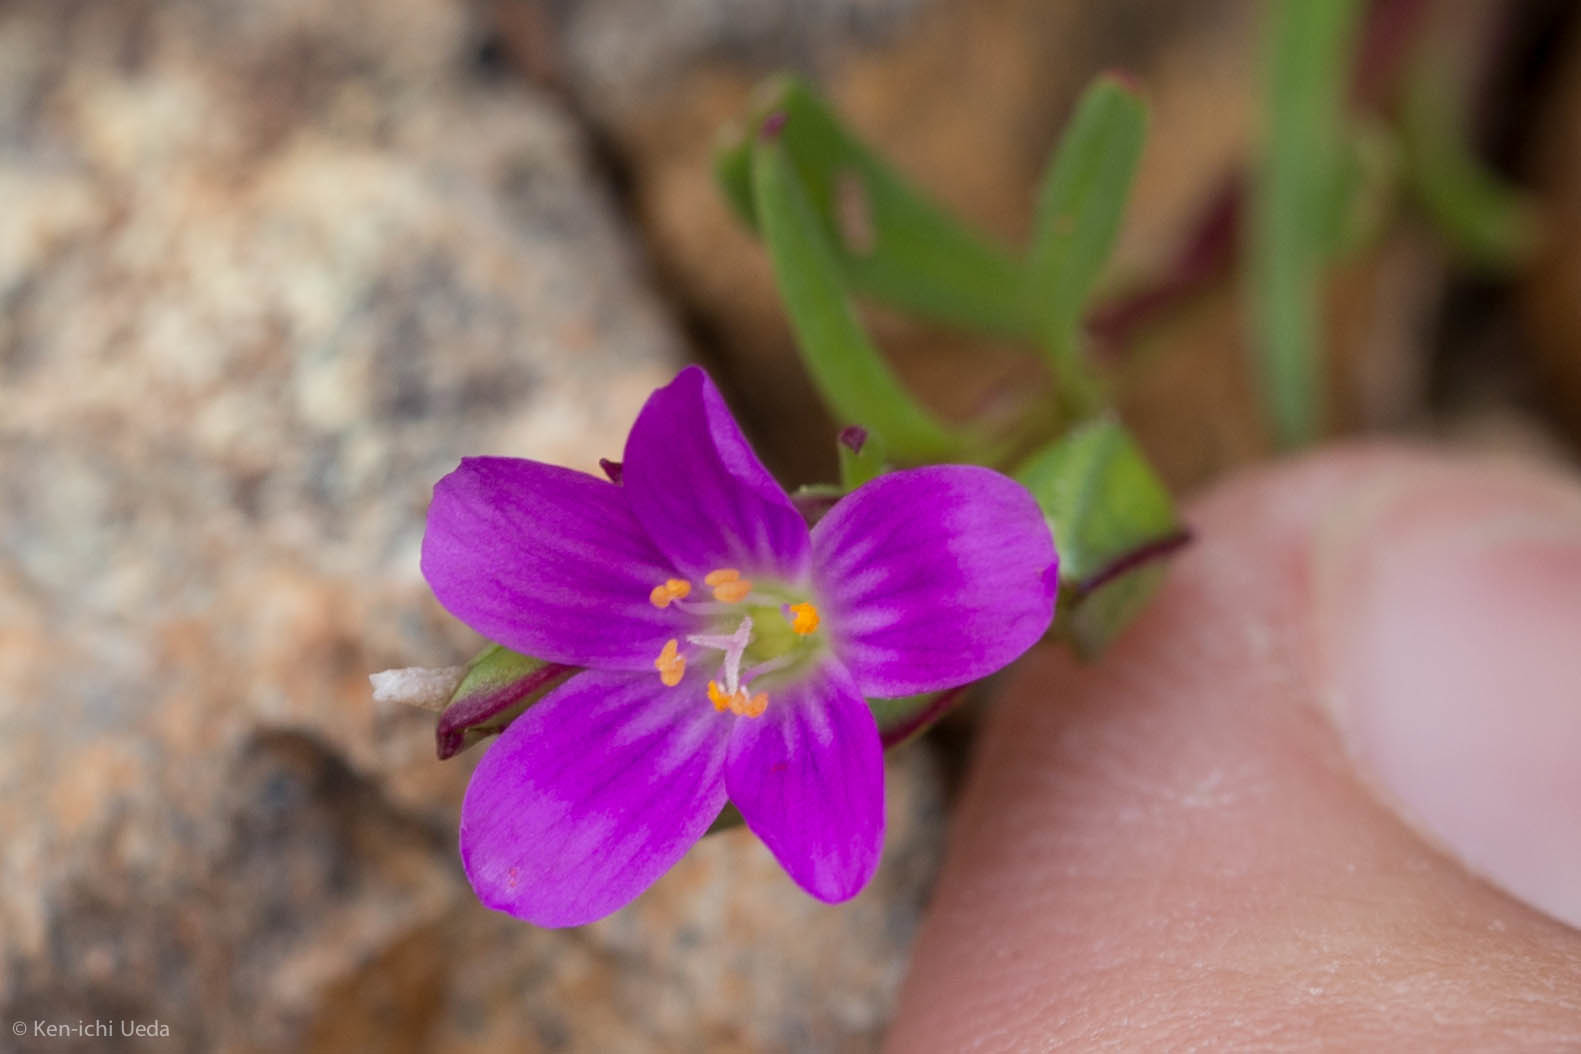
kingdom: Plantae
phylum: Tracheophyta
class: Magnoliopsida
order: Caryophyllales
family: Montiaceae
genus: Calandrinia
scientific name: Calandrinia menziesii
